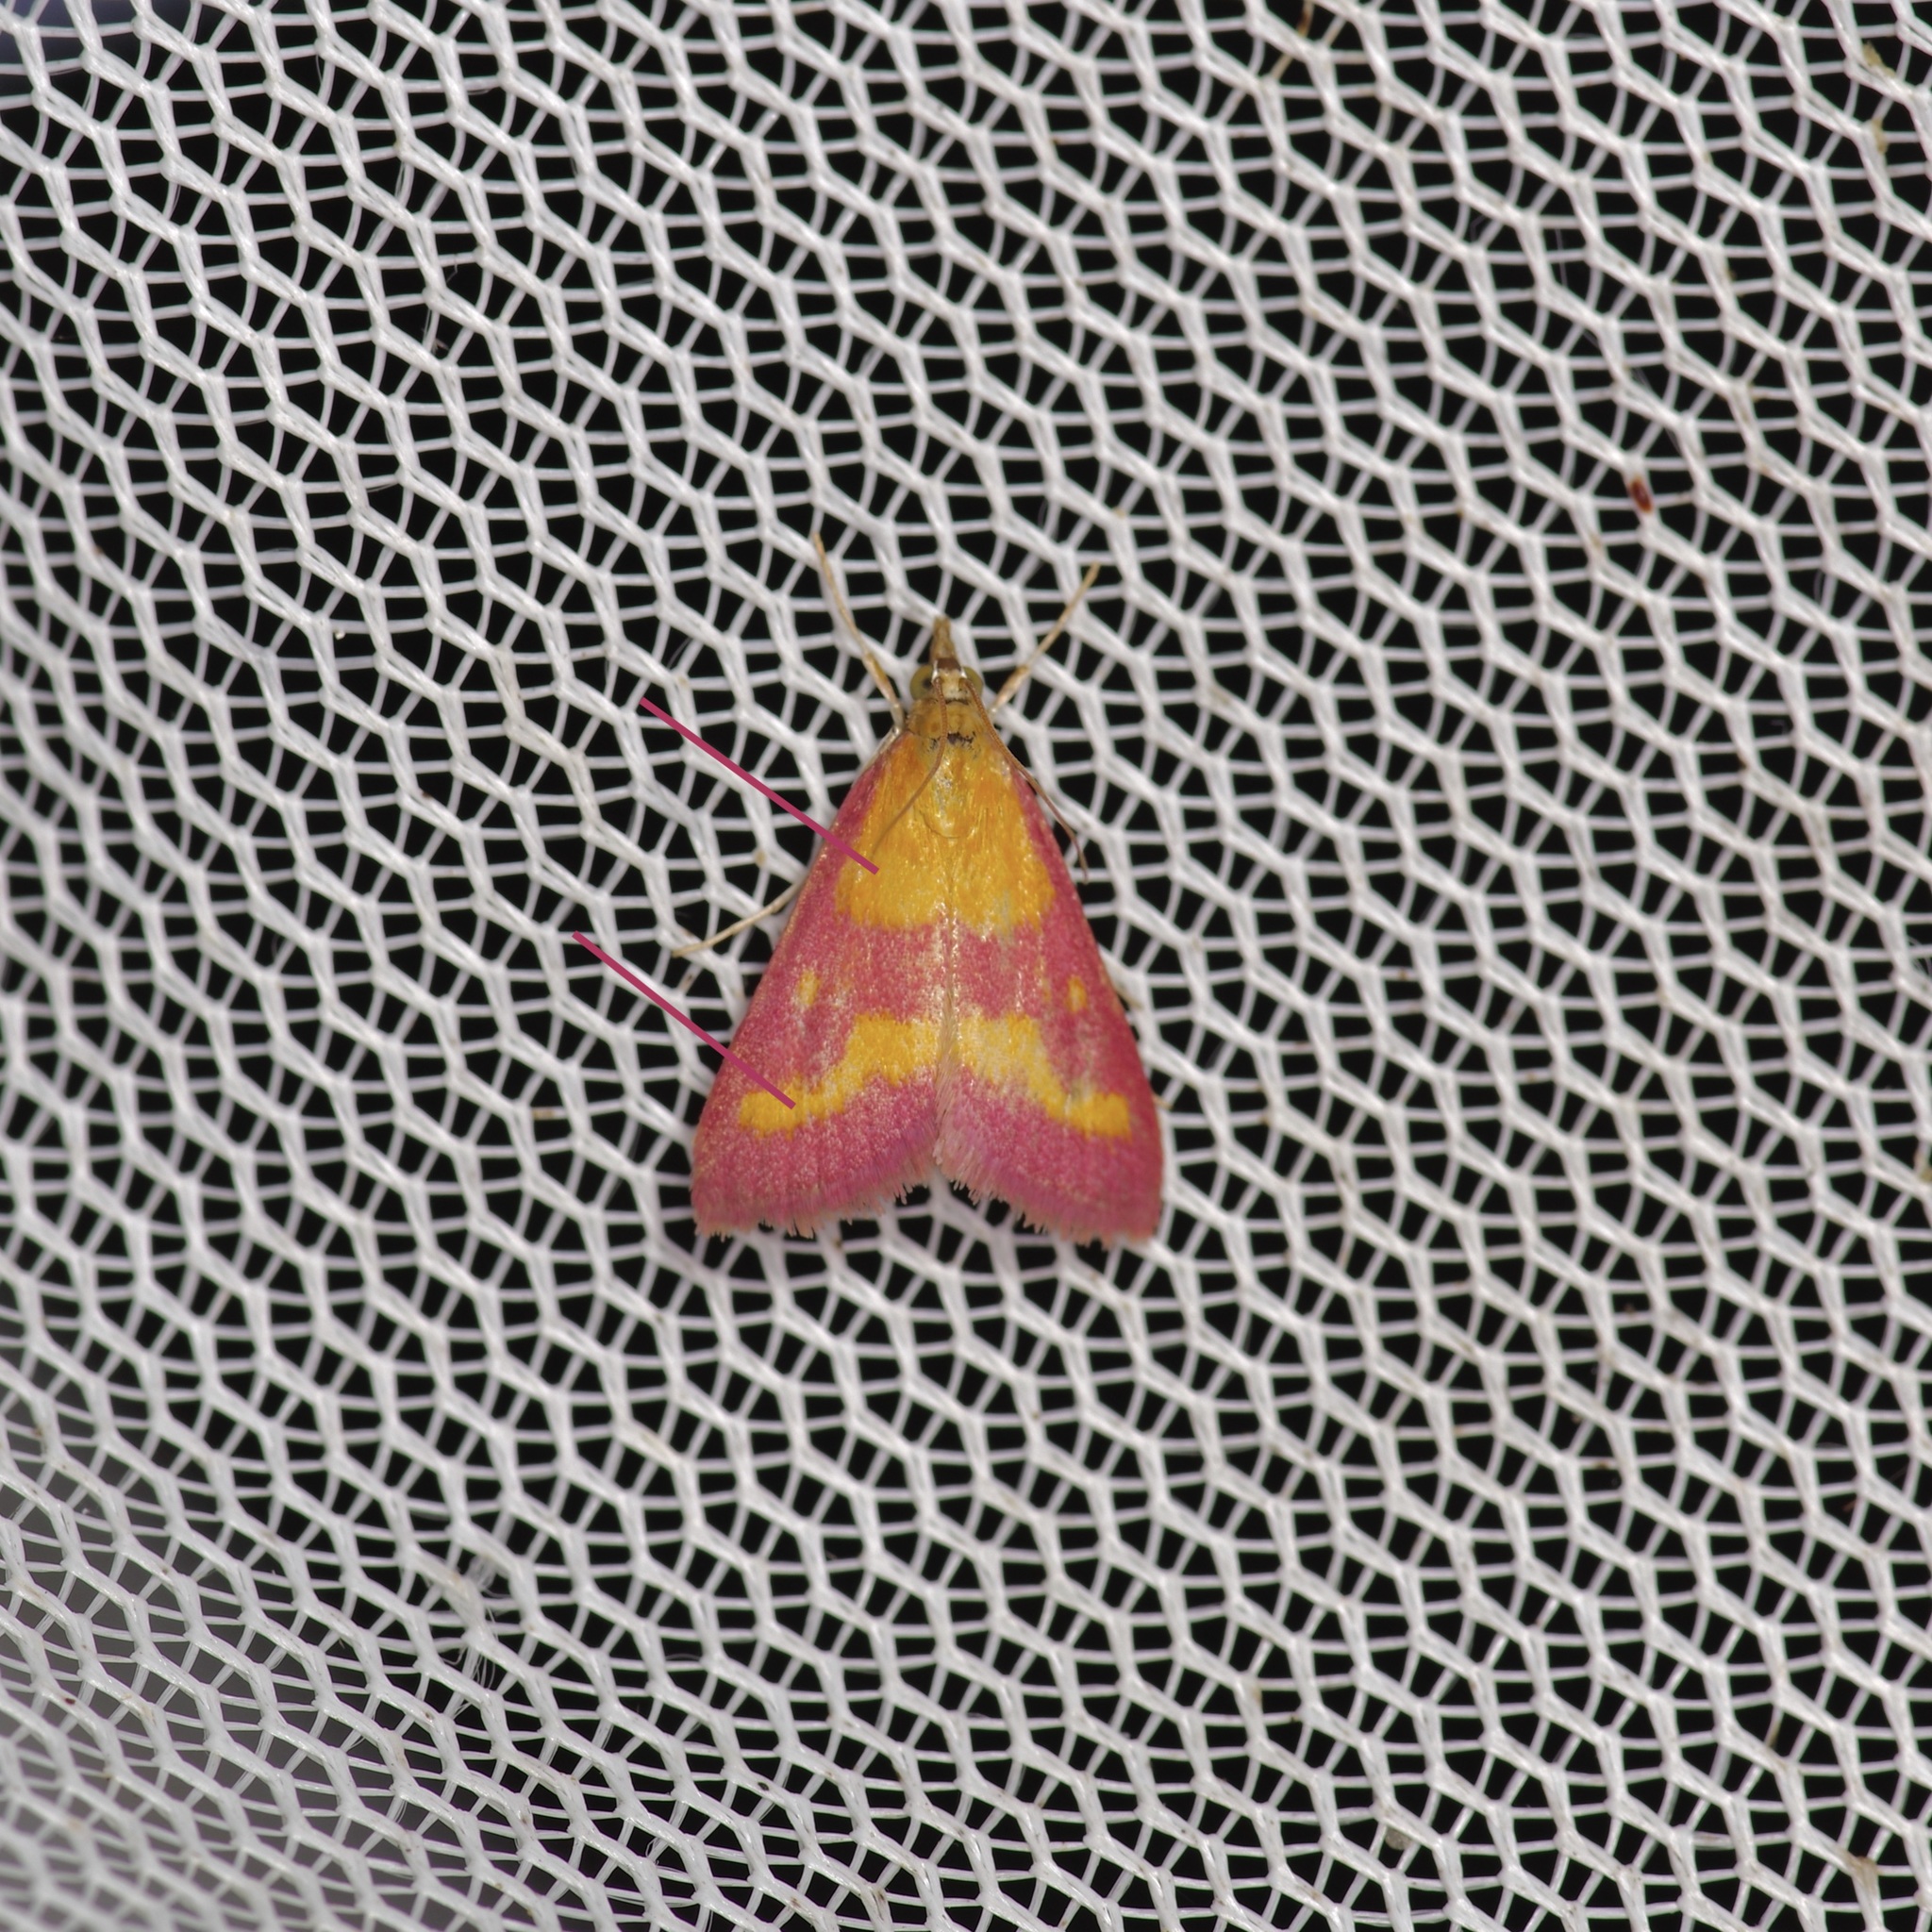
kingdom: Animalia
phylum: Arthropoda
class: Insecta
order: Lepidoptera
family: Crambidae
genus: Pyrausta
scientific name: Pyrausta laticlavia
